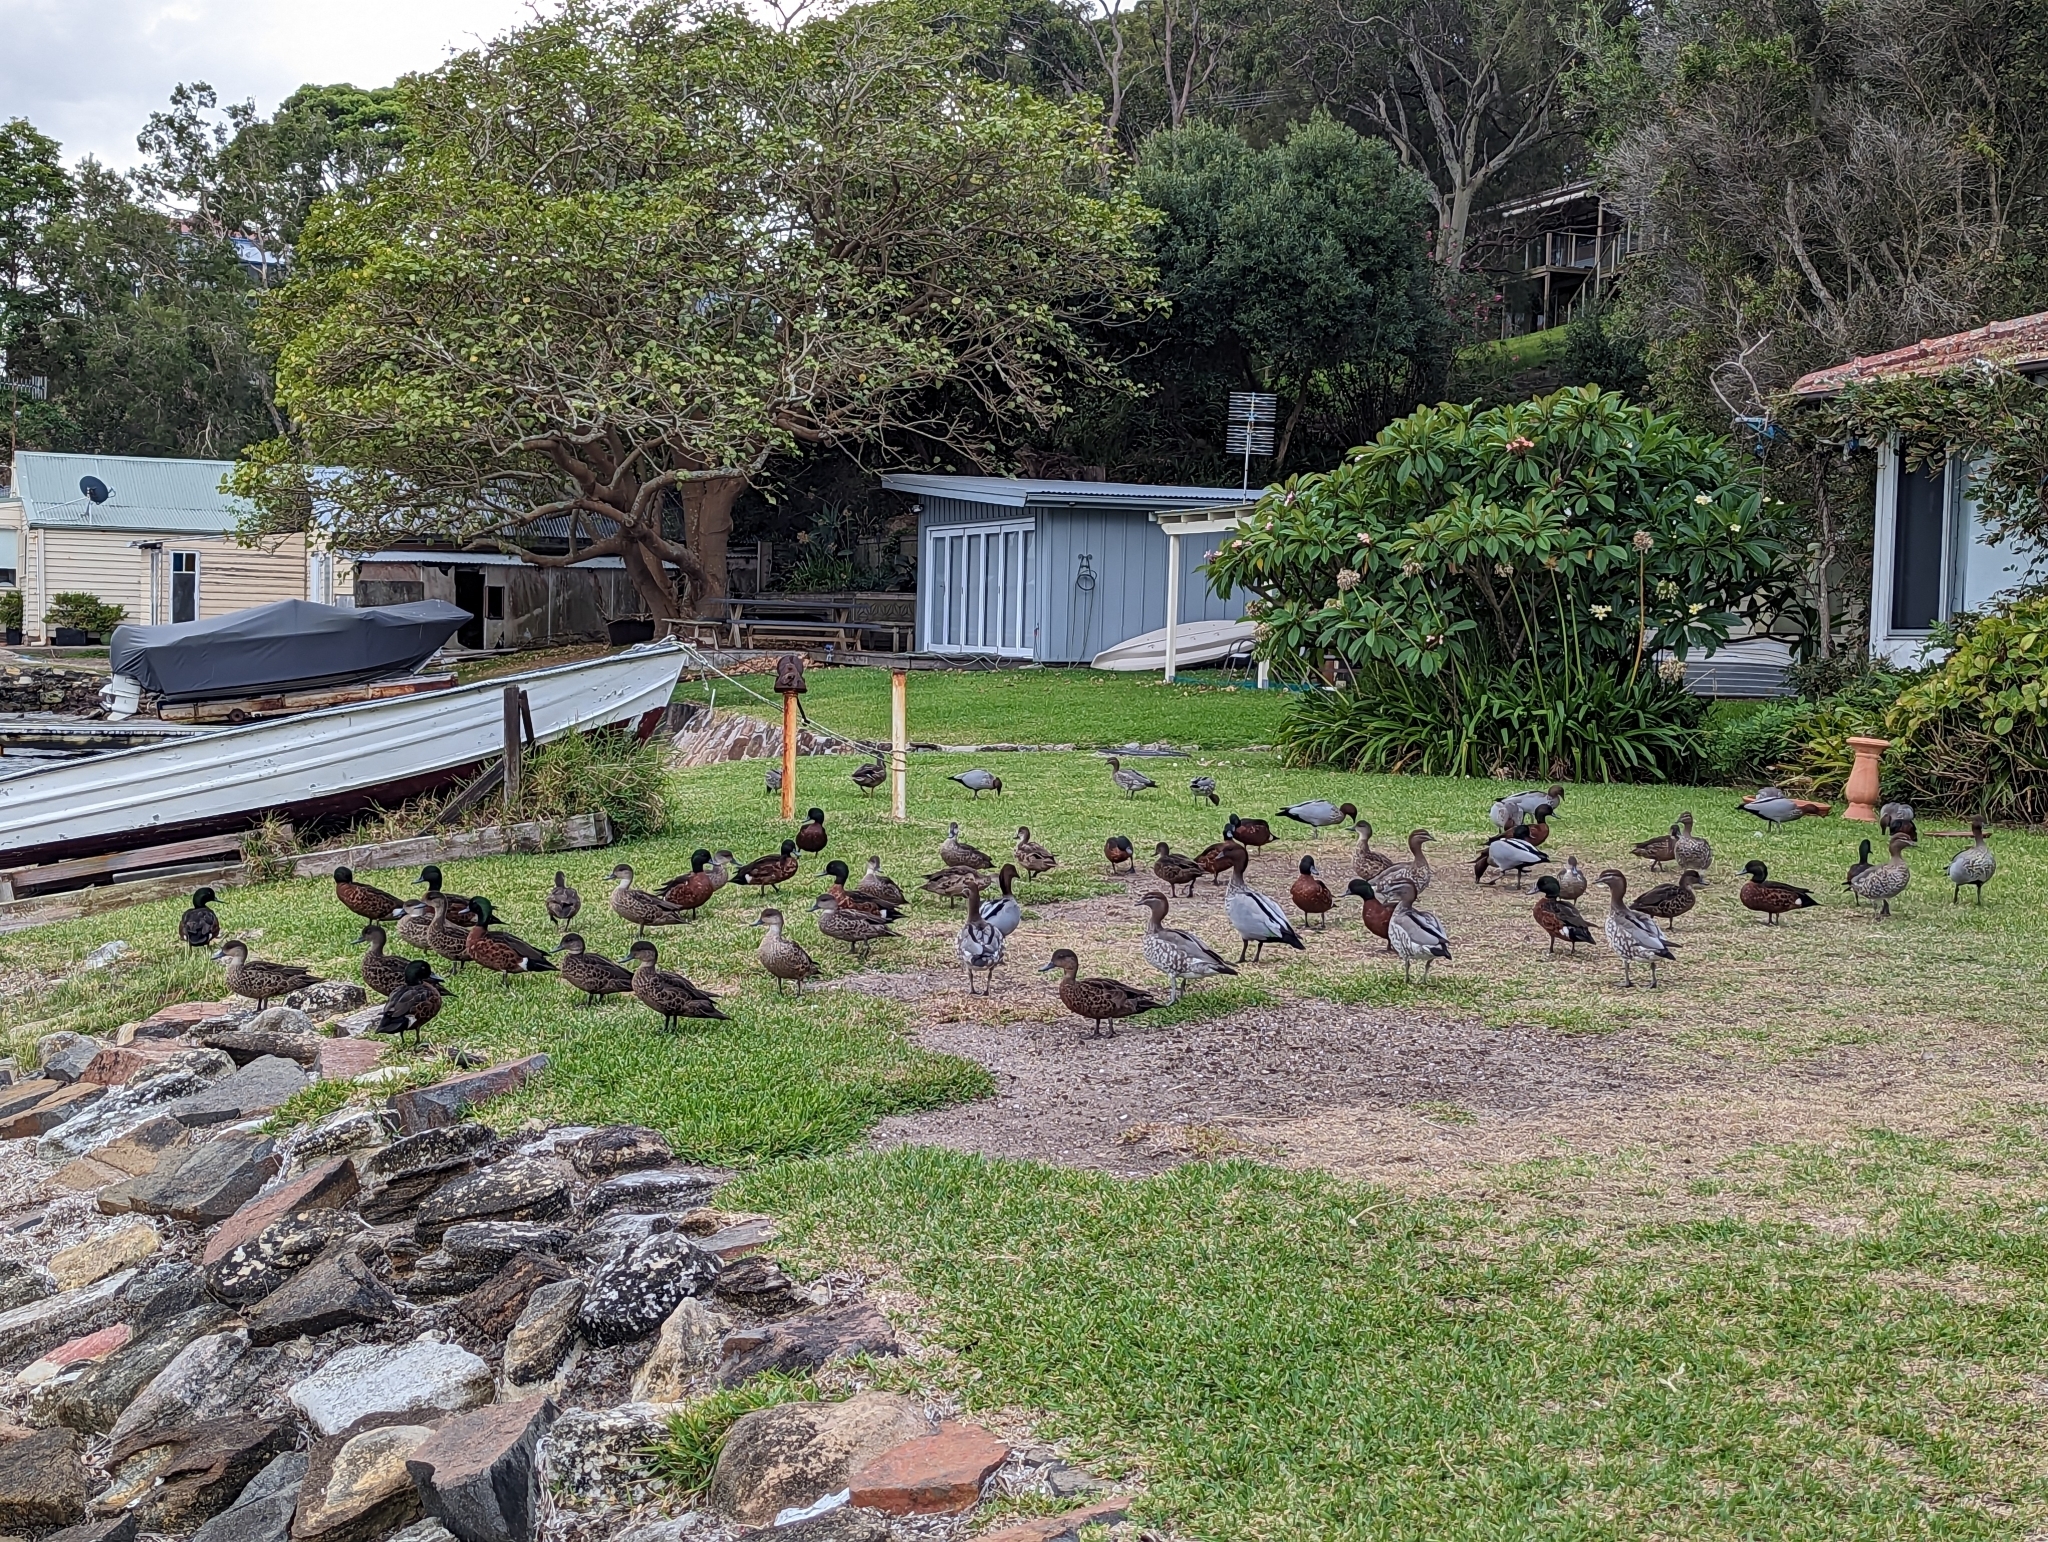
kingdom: Animalia
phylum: Chordata
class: Aves
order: Anseriformes
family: Anatidae
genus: Chenonetta
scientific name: Chenonetta jubata
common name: Maned duck
